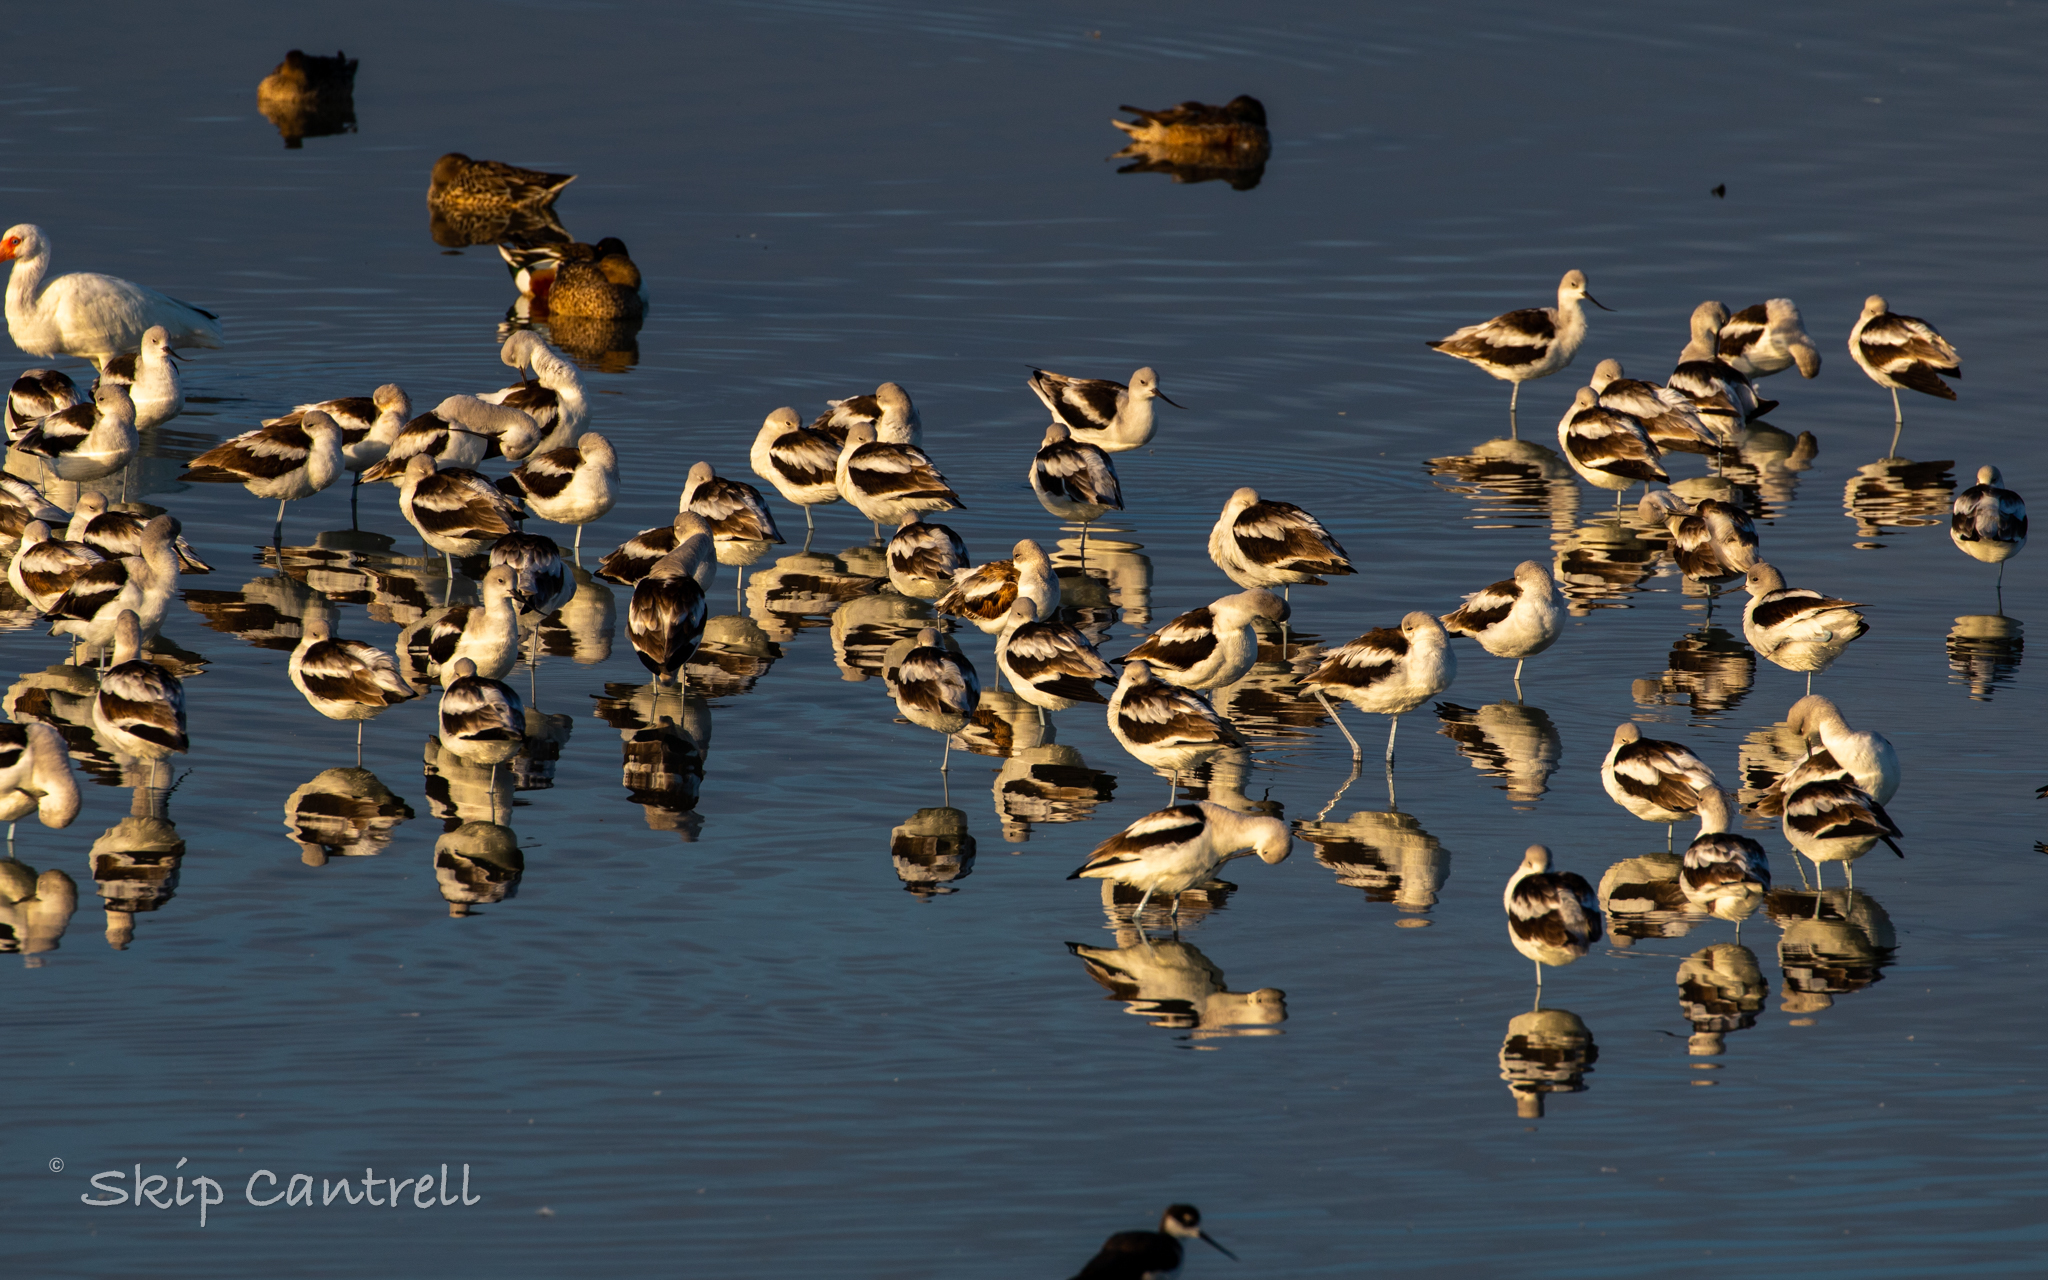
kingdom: Animalia
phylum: Chordata
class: Aves
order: Charadriiformes
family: Recurvirostridae
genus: Recurvirostra
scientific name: Recurvirostra americana
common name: American avocet
